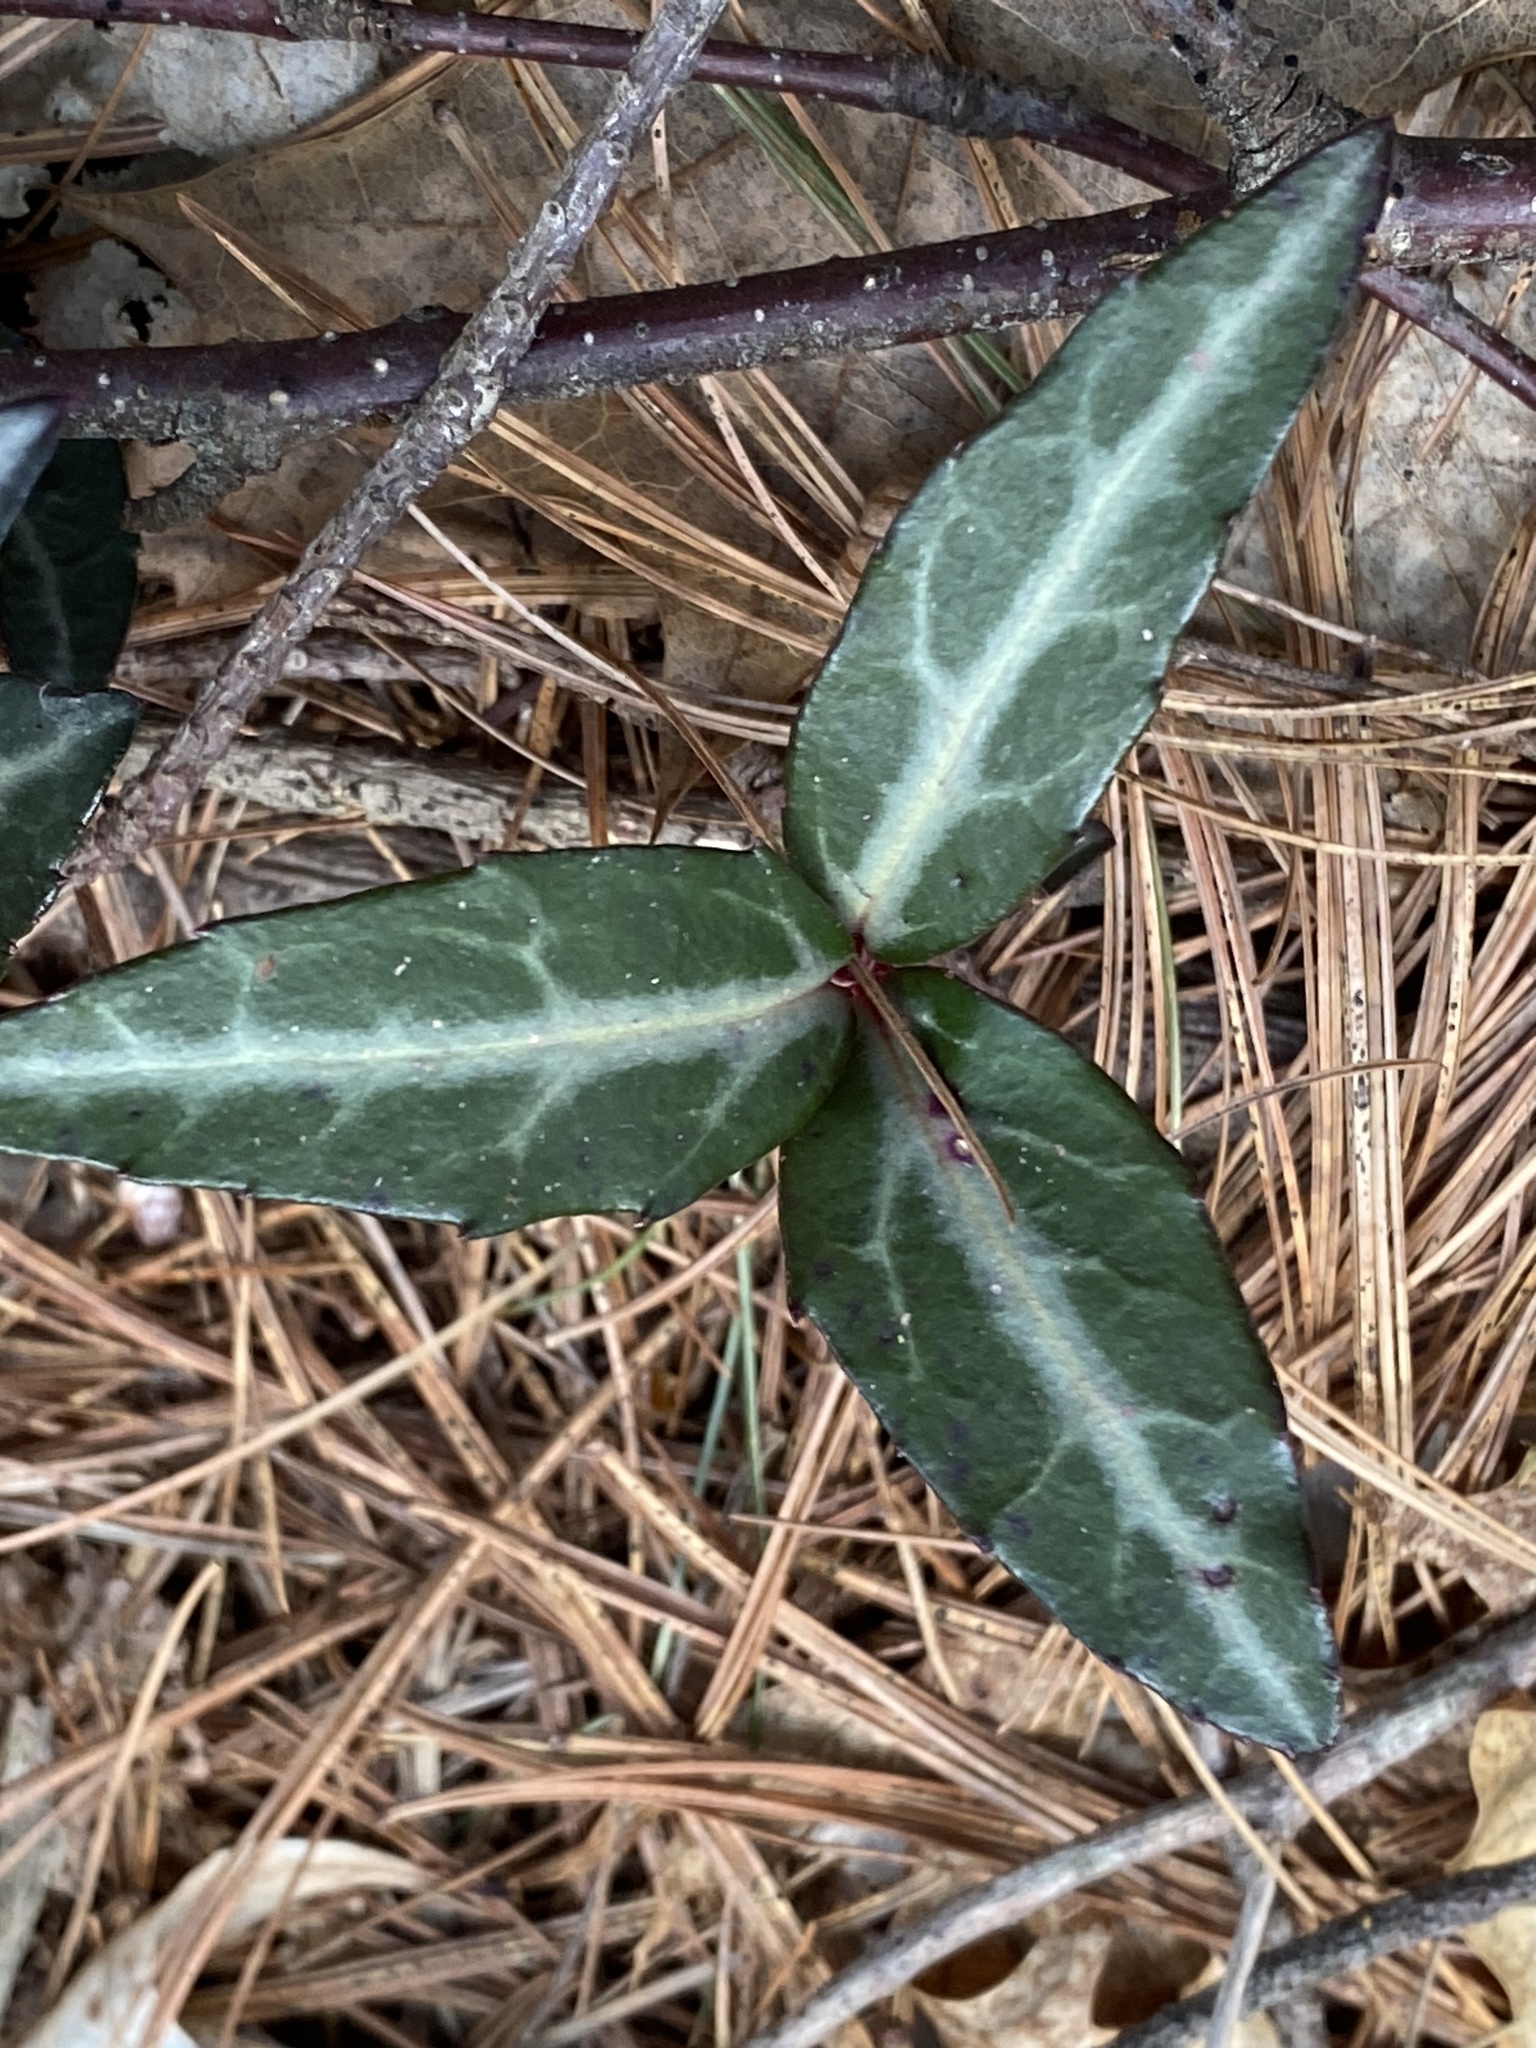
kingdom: Plantae
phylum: Tracheophyta
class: Magnoliopsida
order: Ericales
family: Ericaceae
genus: Chimaphila
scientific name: Chimaphila maculata
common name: Spotted pipsissewa
